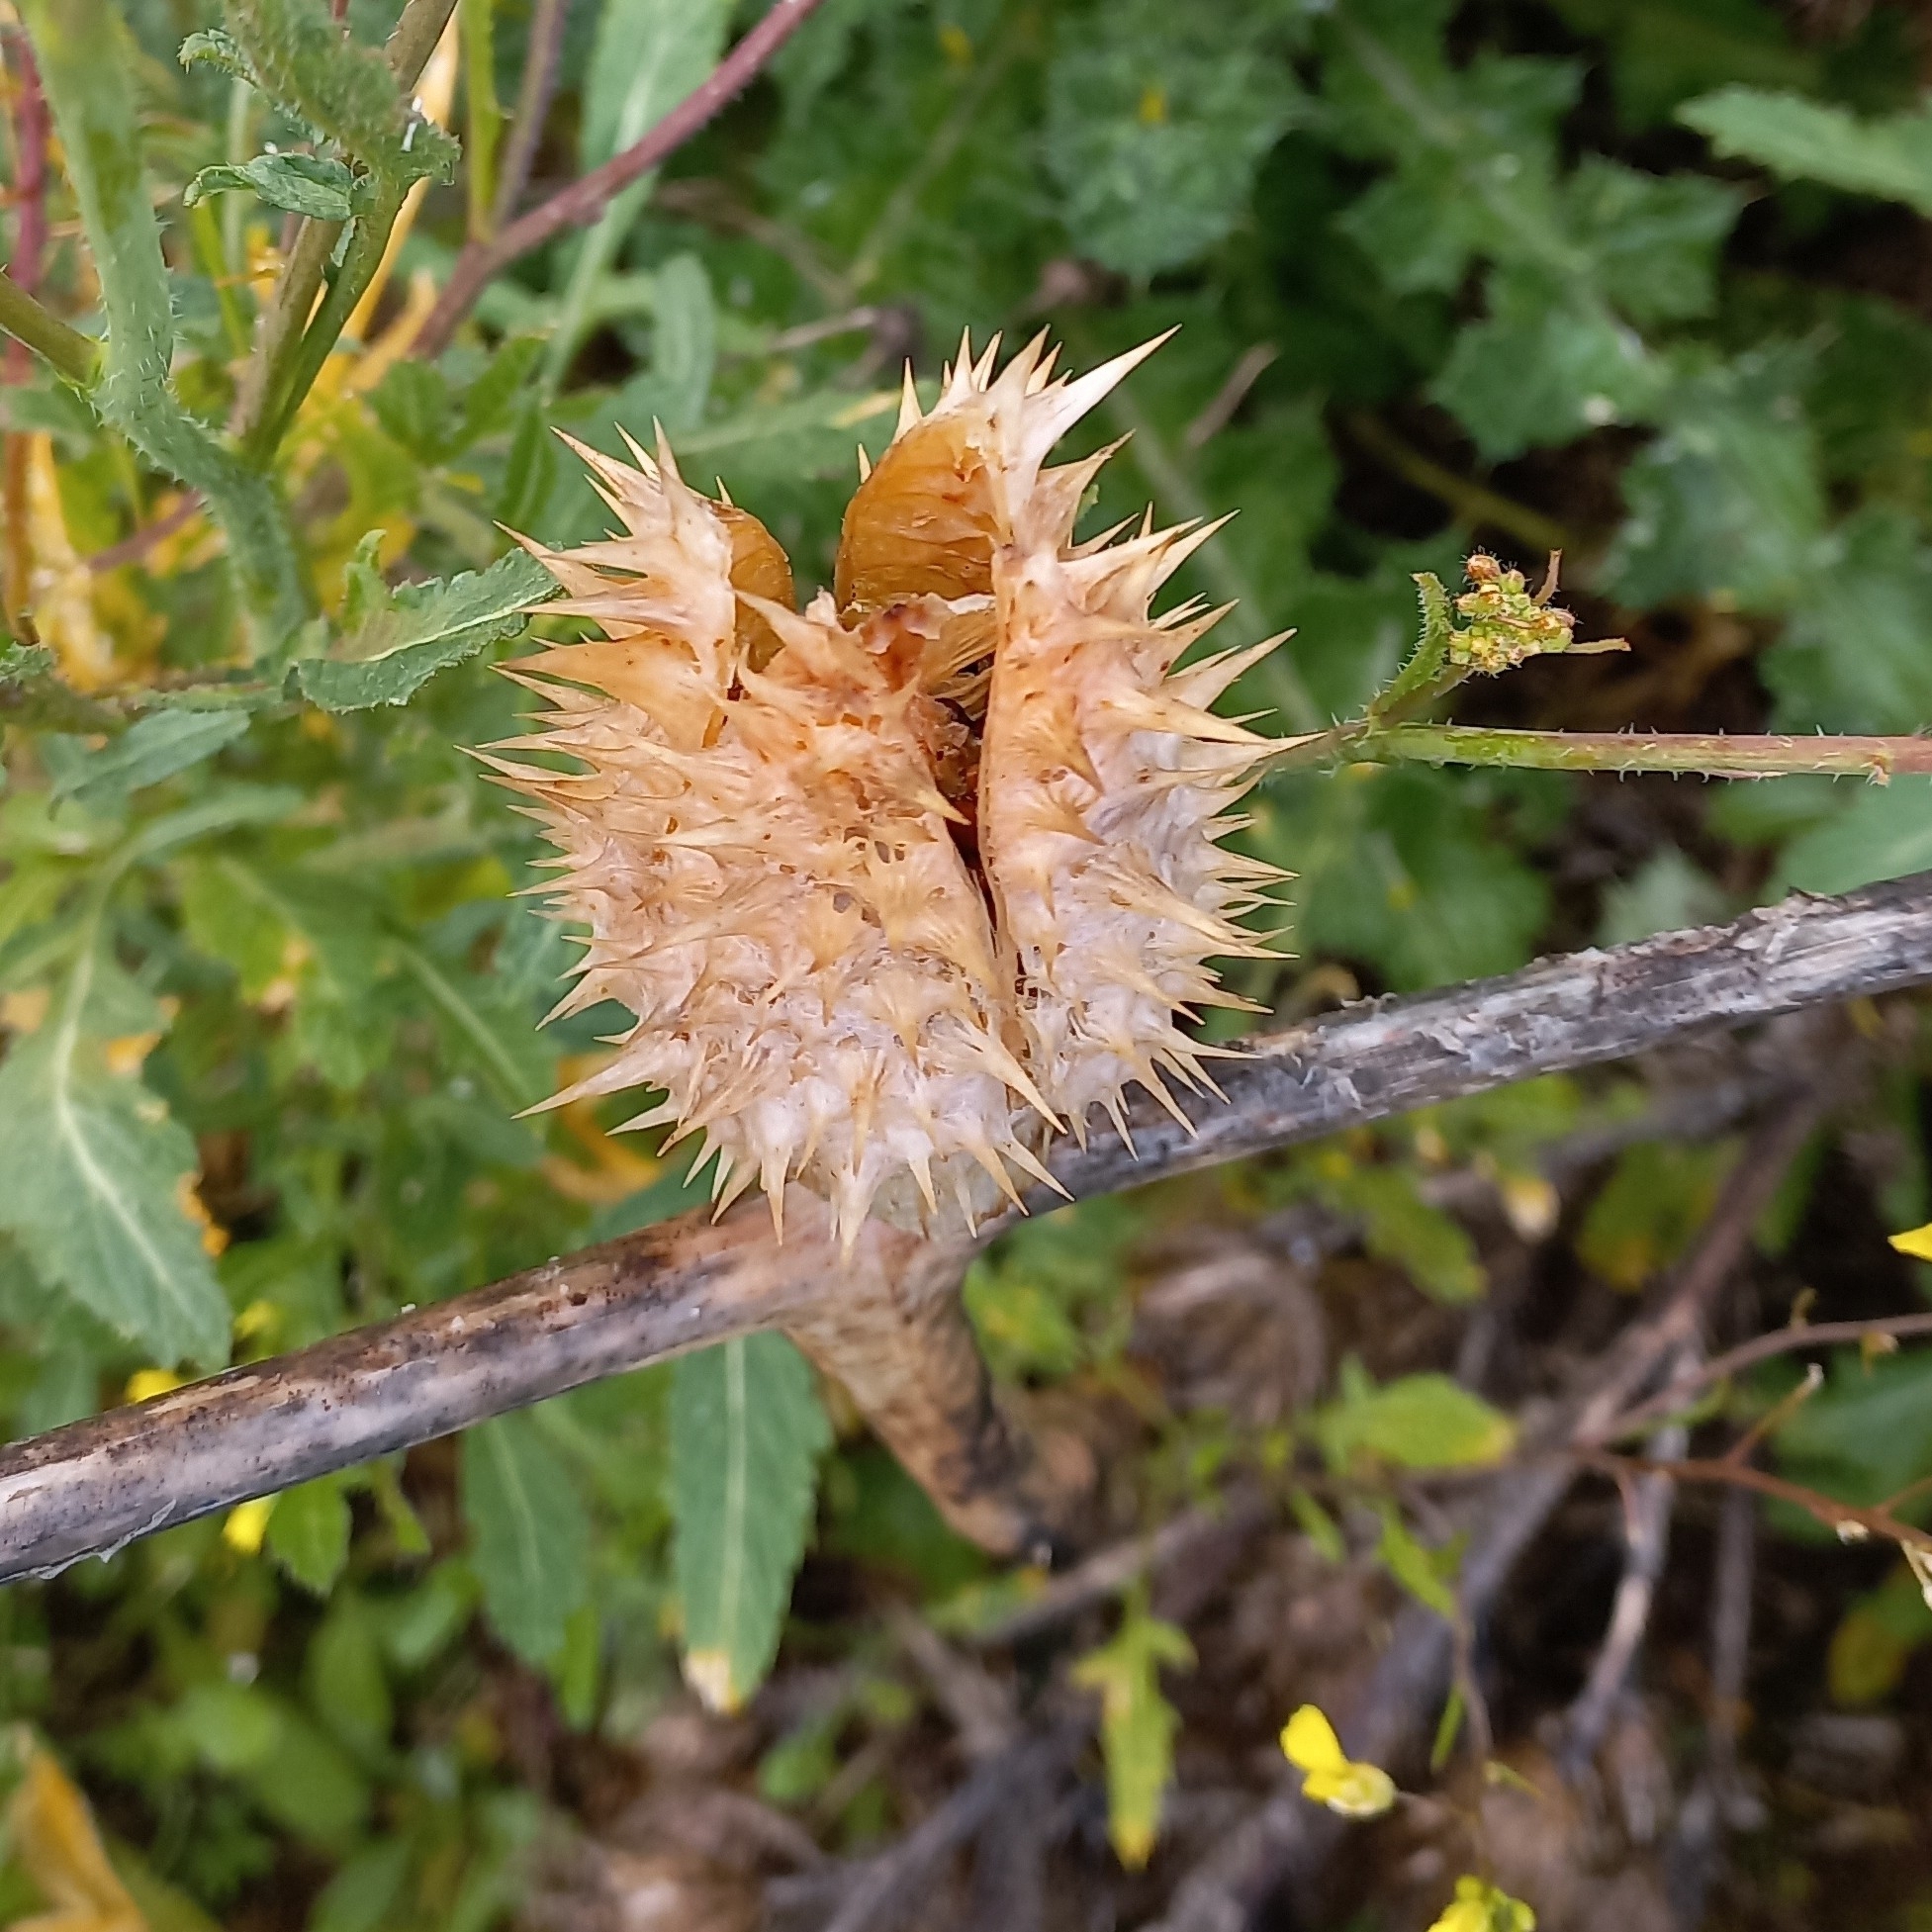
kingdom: Plantae
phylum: Tracheophyta
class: Magnoliopsida
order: Solanales
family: Solanaceae
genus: Datura
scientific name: Datura stramonium
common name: Thorn-apple
